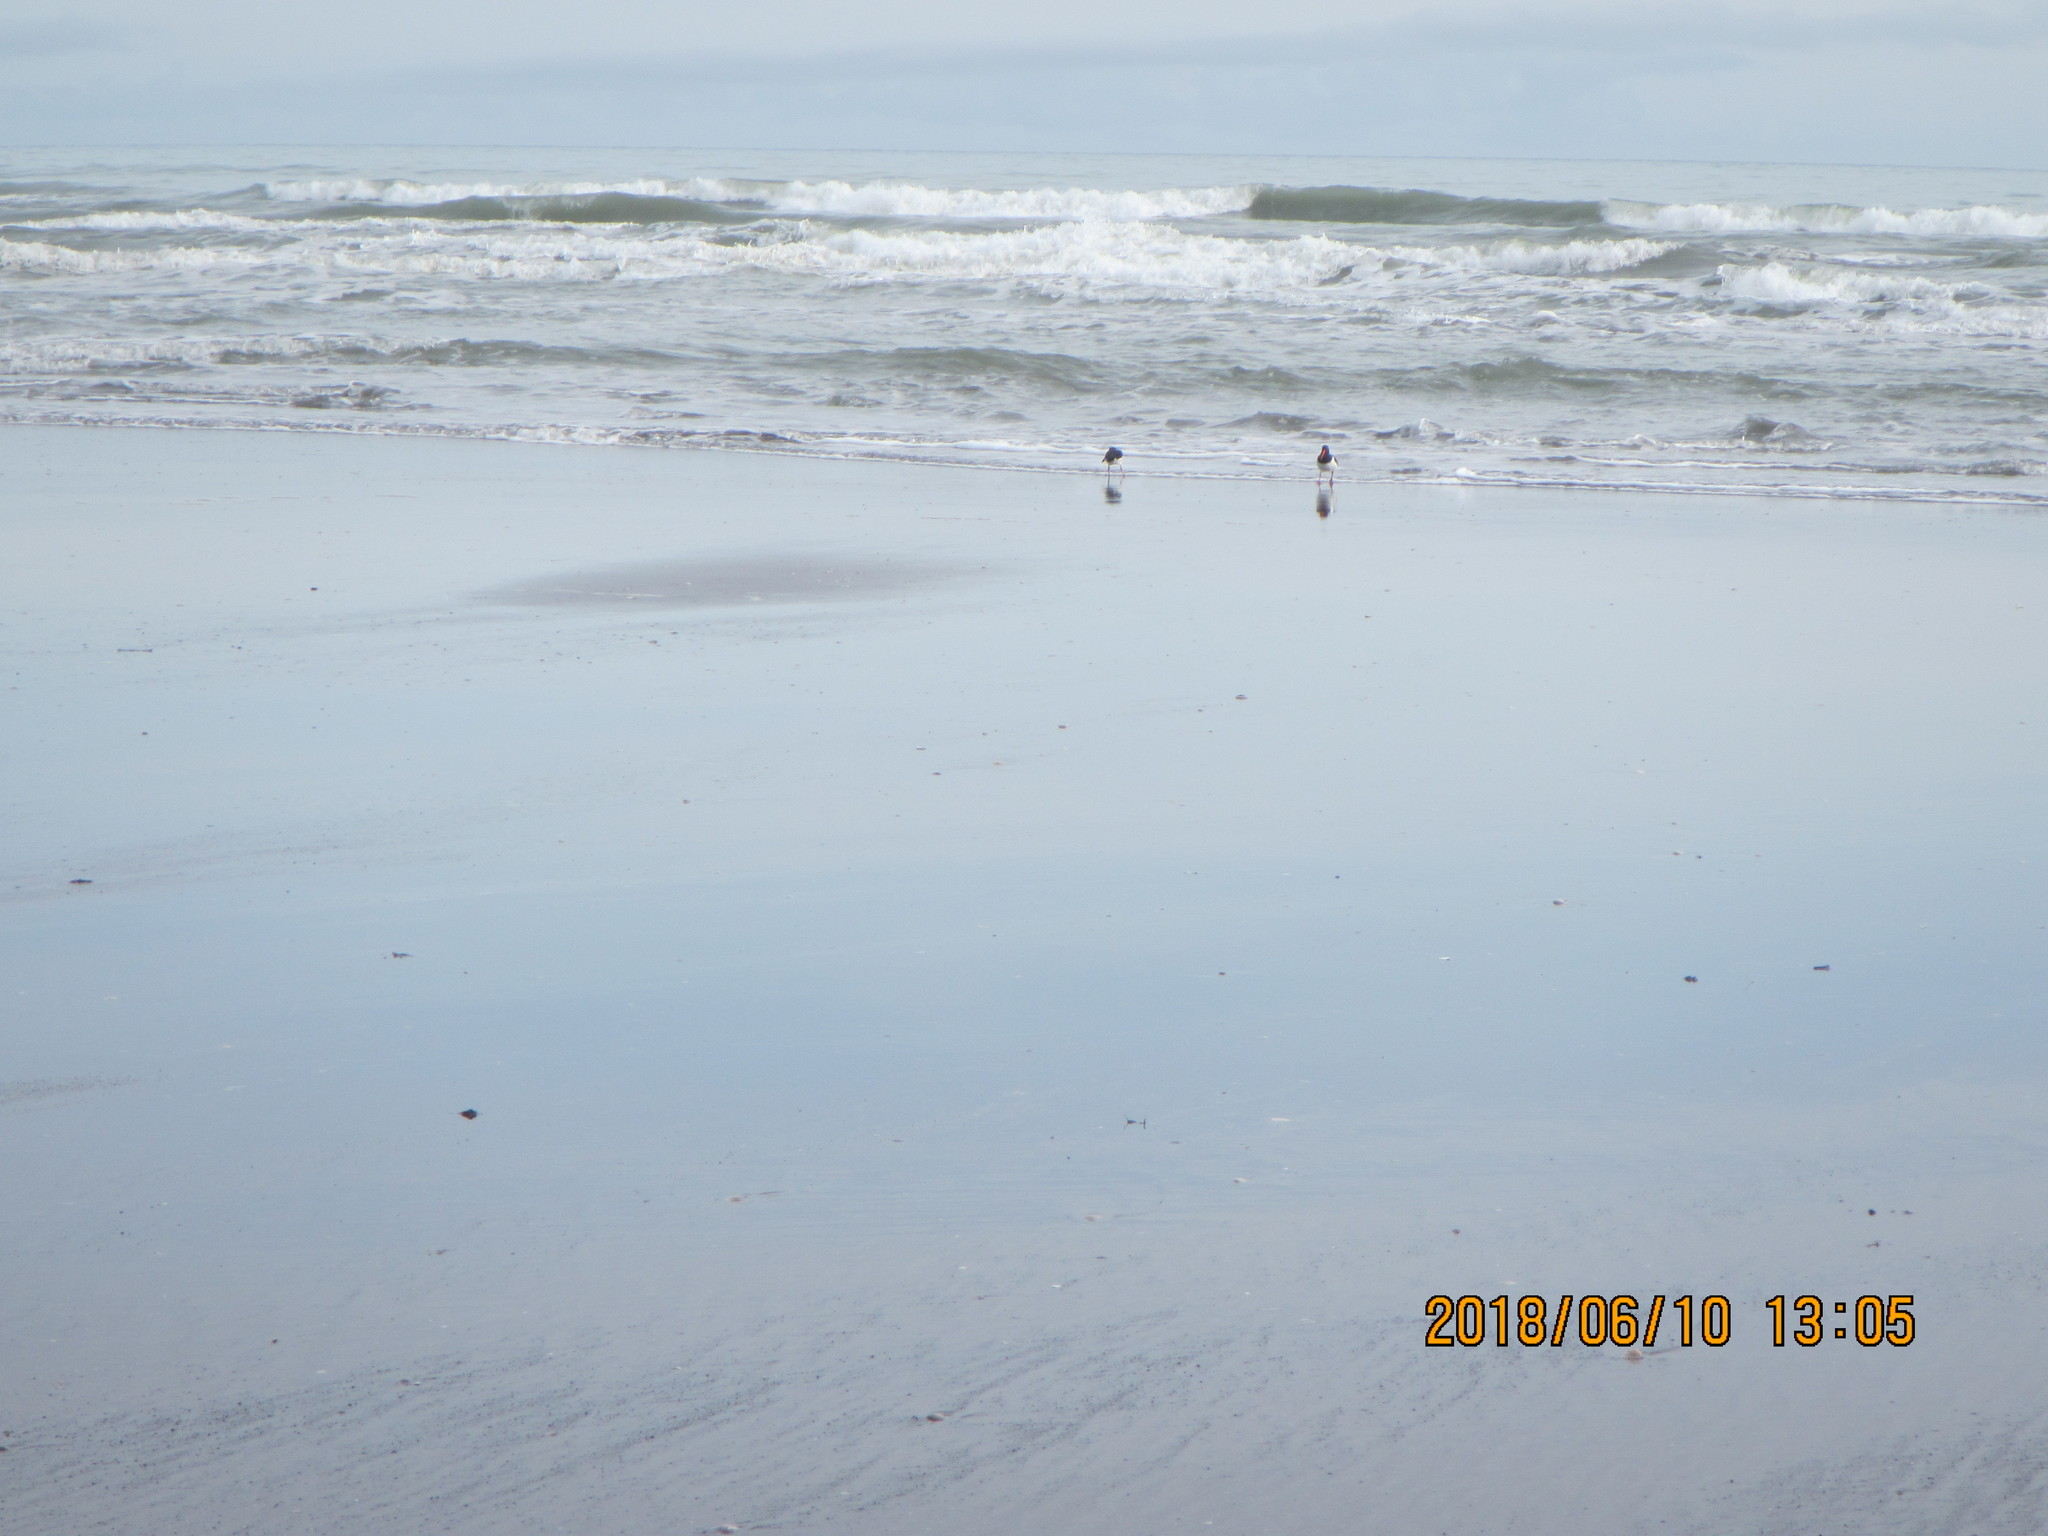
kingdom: Animalia
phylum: Chordata
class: Aves
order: Charadriiformes
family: Haematopodidae
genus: Haematopus
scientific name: Haematopus finschi
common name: South island oystercatcher
